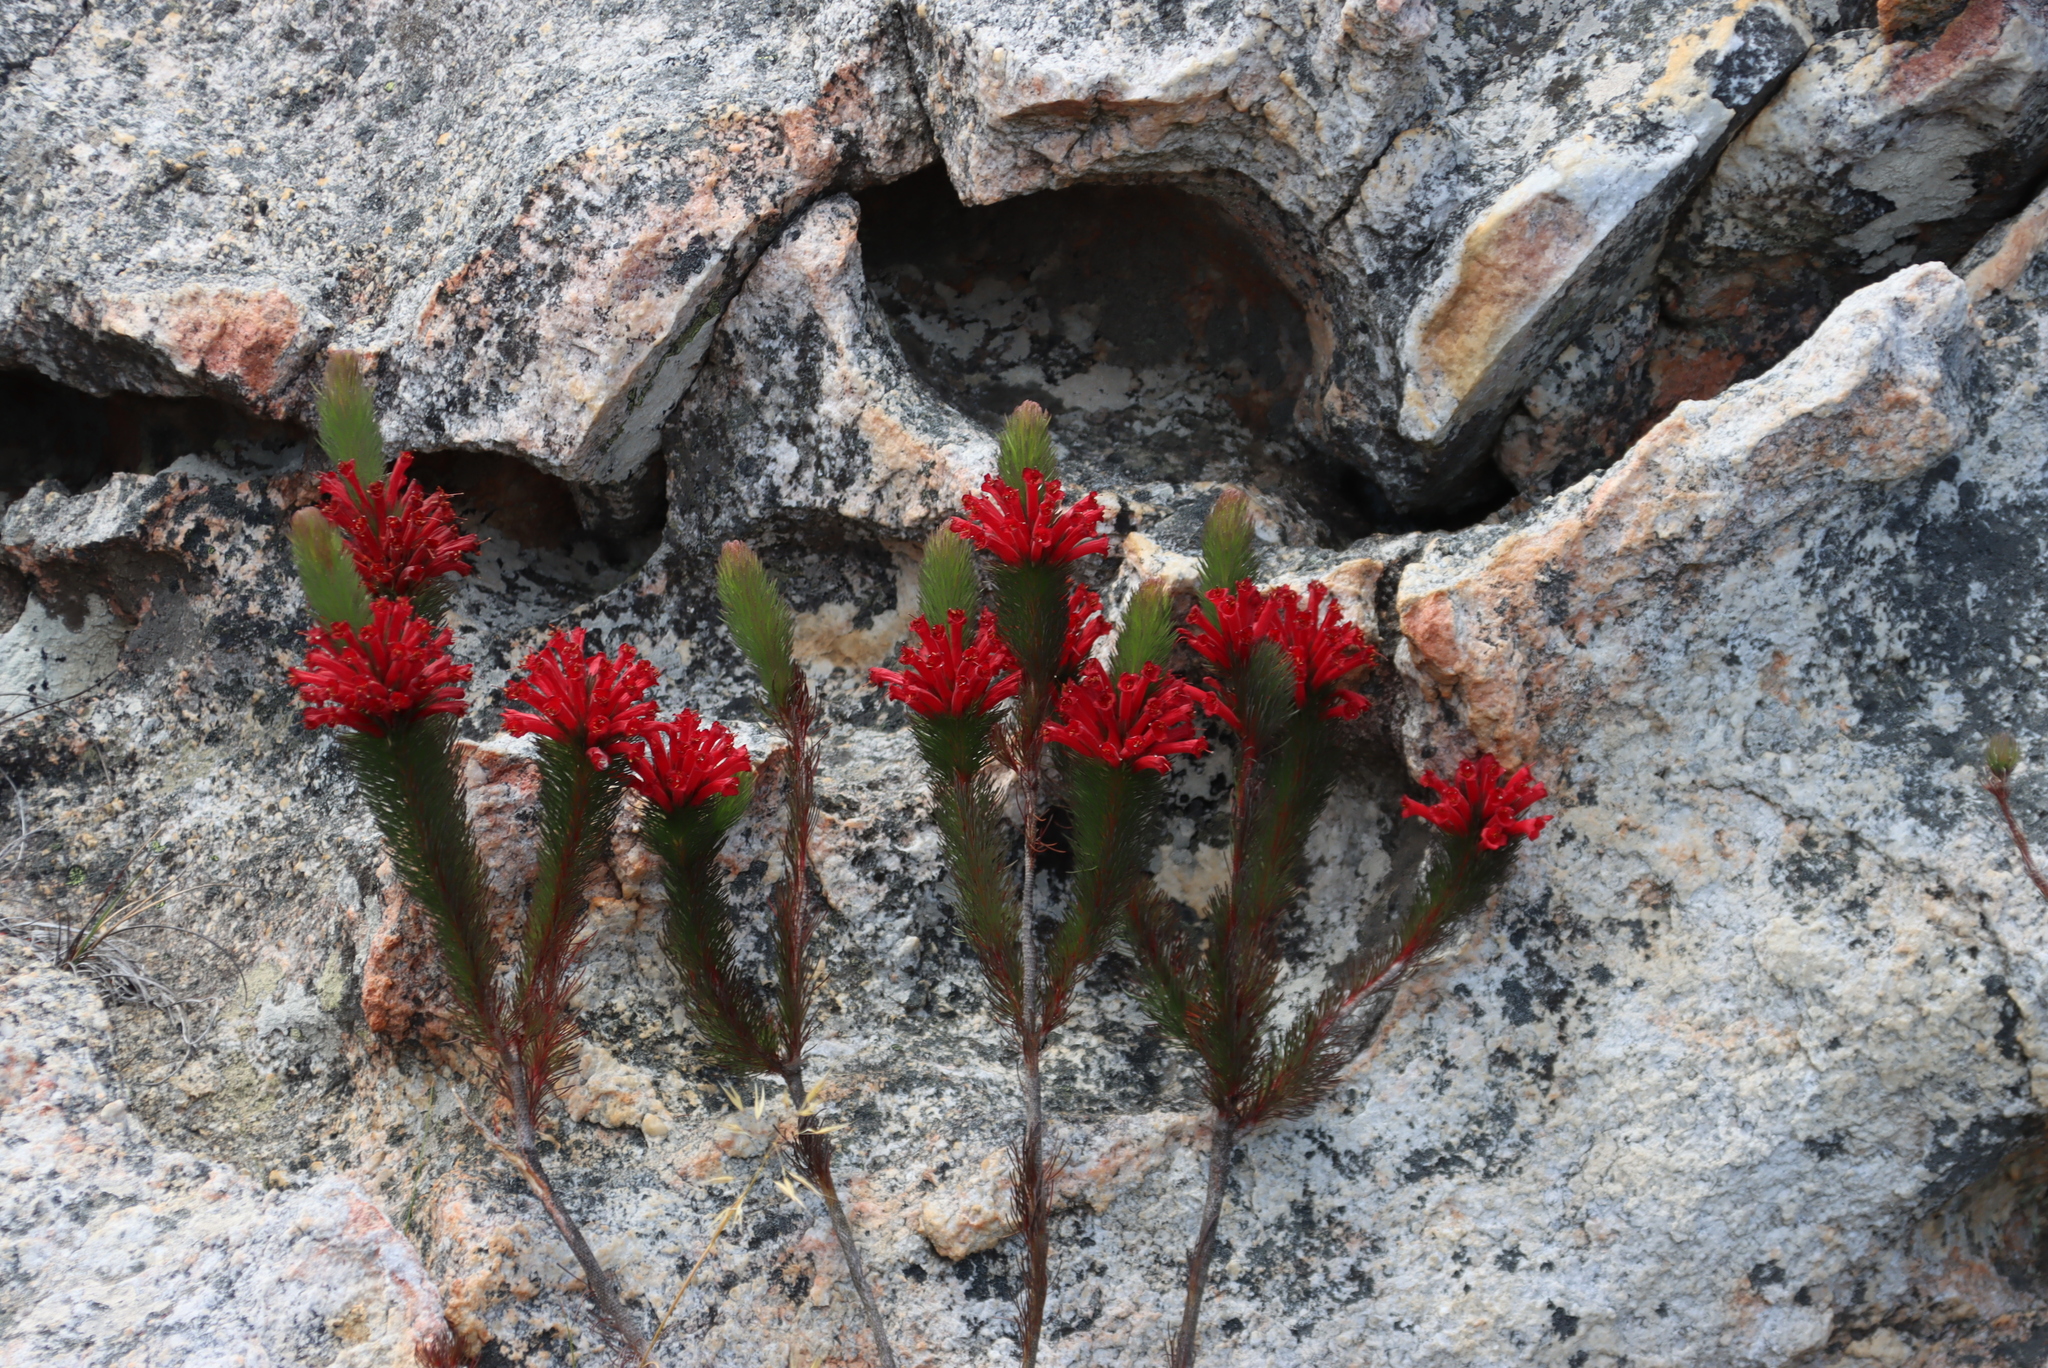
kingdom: Plantae
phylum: Tracheophyta
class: Magnoliopsida
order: Ericales
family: Ericaceae
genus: Erica
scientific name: Erica vestita
